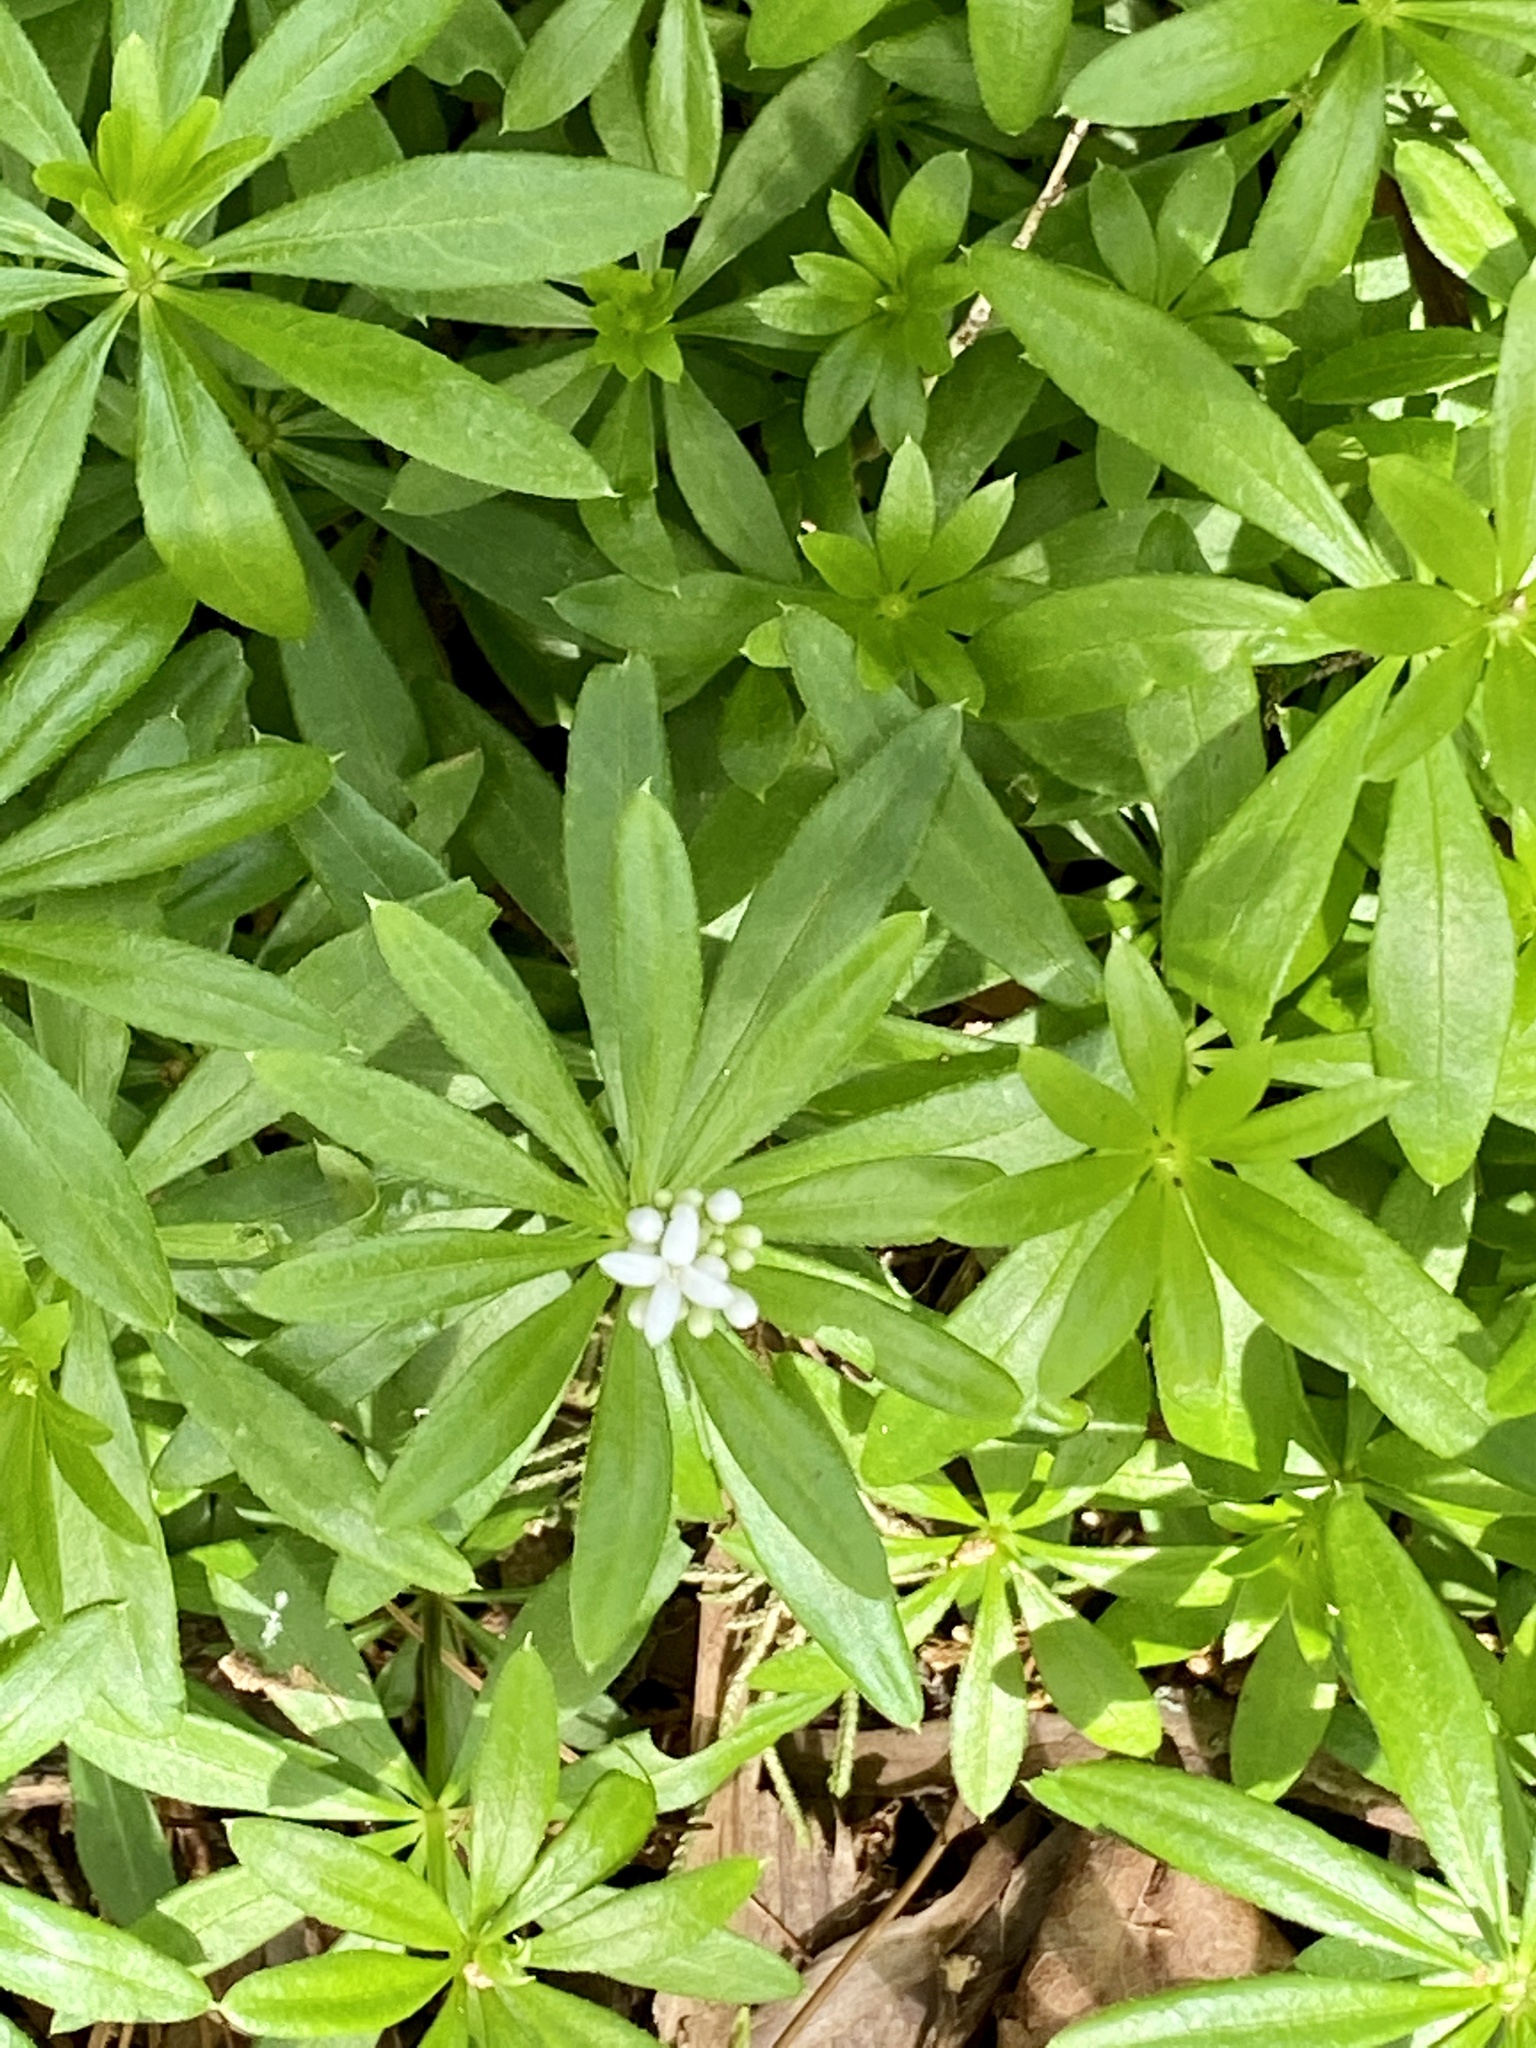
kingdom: Plantae
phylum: Tracheophyta
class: Magnoliopsida
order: Gentianales
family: Rubiaceae
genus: Galium
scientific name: Galium odoratum
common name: Sweet woodruff
